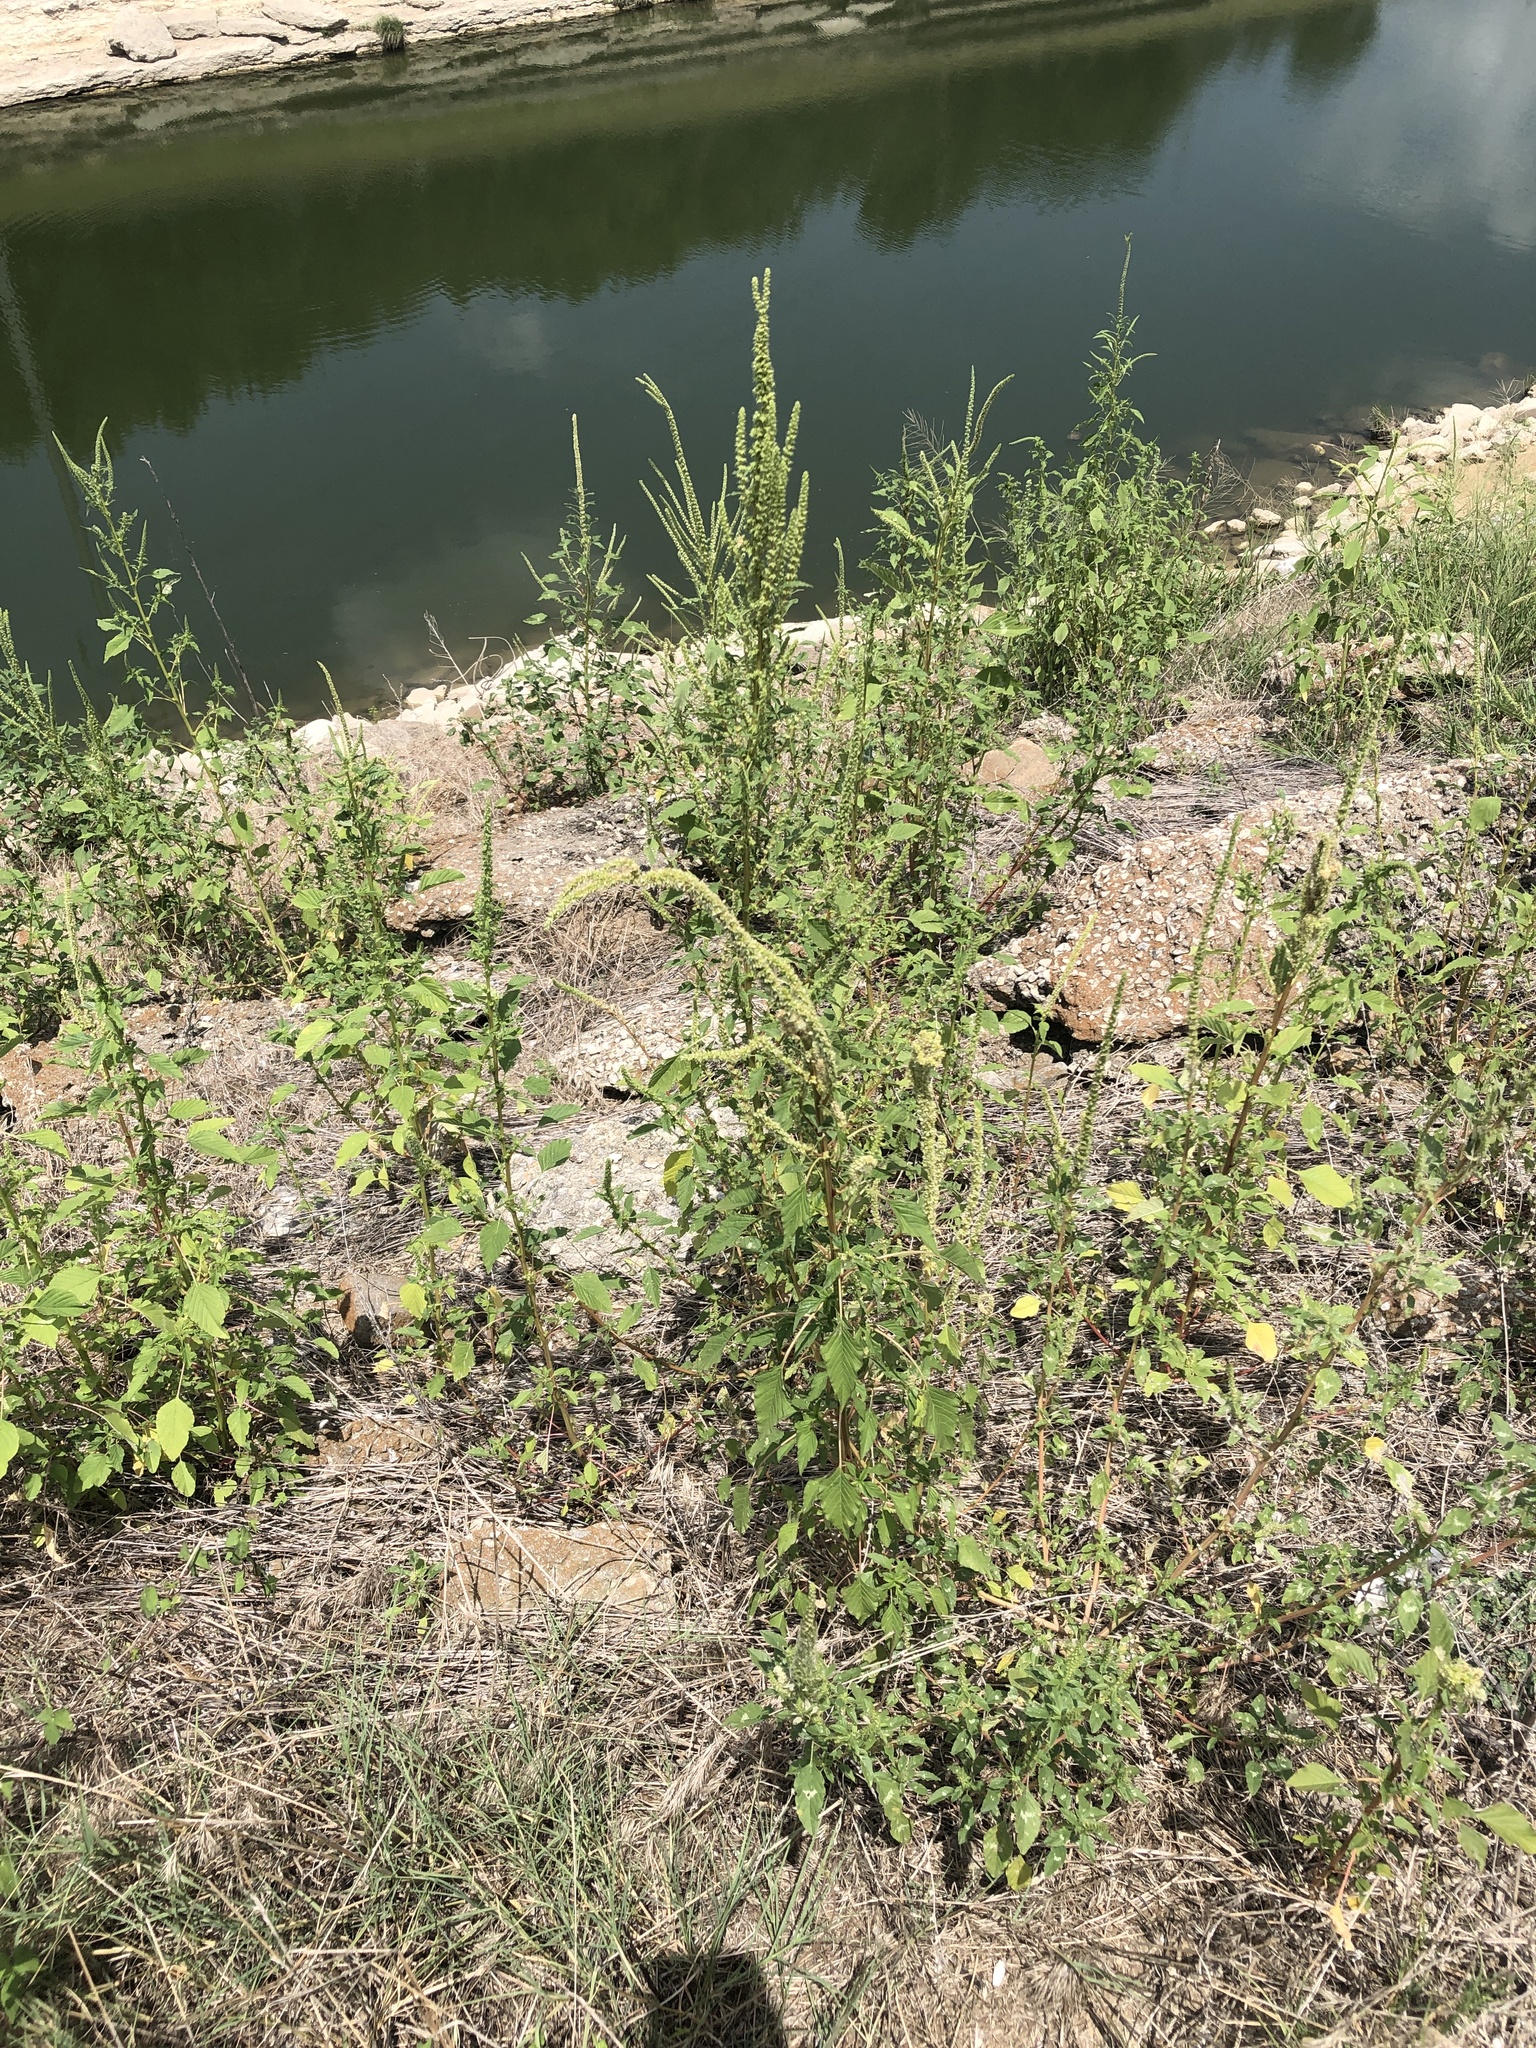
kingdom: Plantae
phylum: Tracheophyta
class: Magnoliopsida
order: Caryophyllales
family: Amaranthaceae
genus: Amaranthus
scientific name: Amaranthus palmeri
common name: Dioecious amaranth
